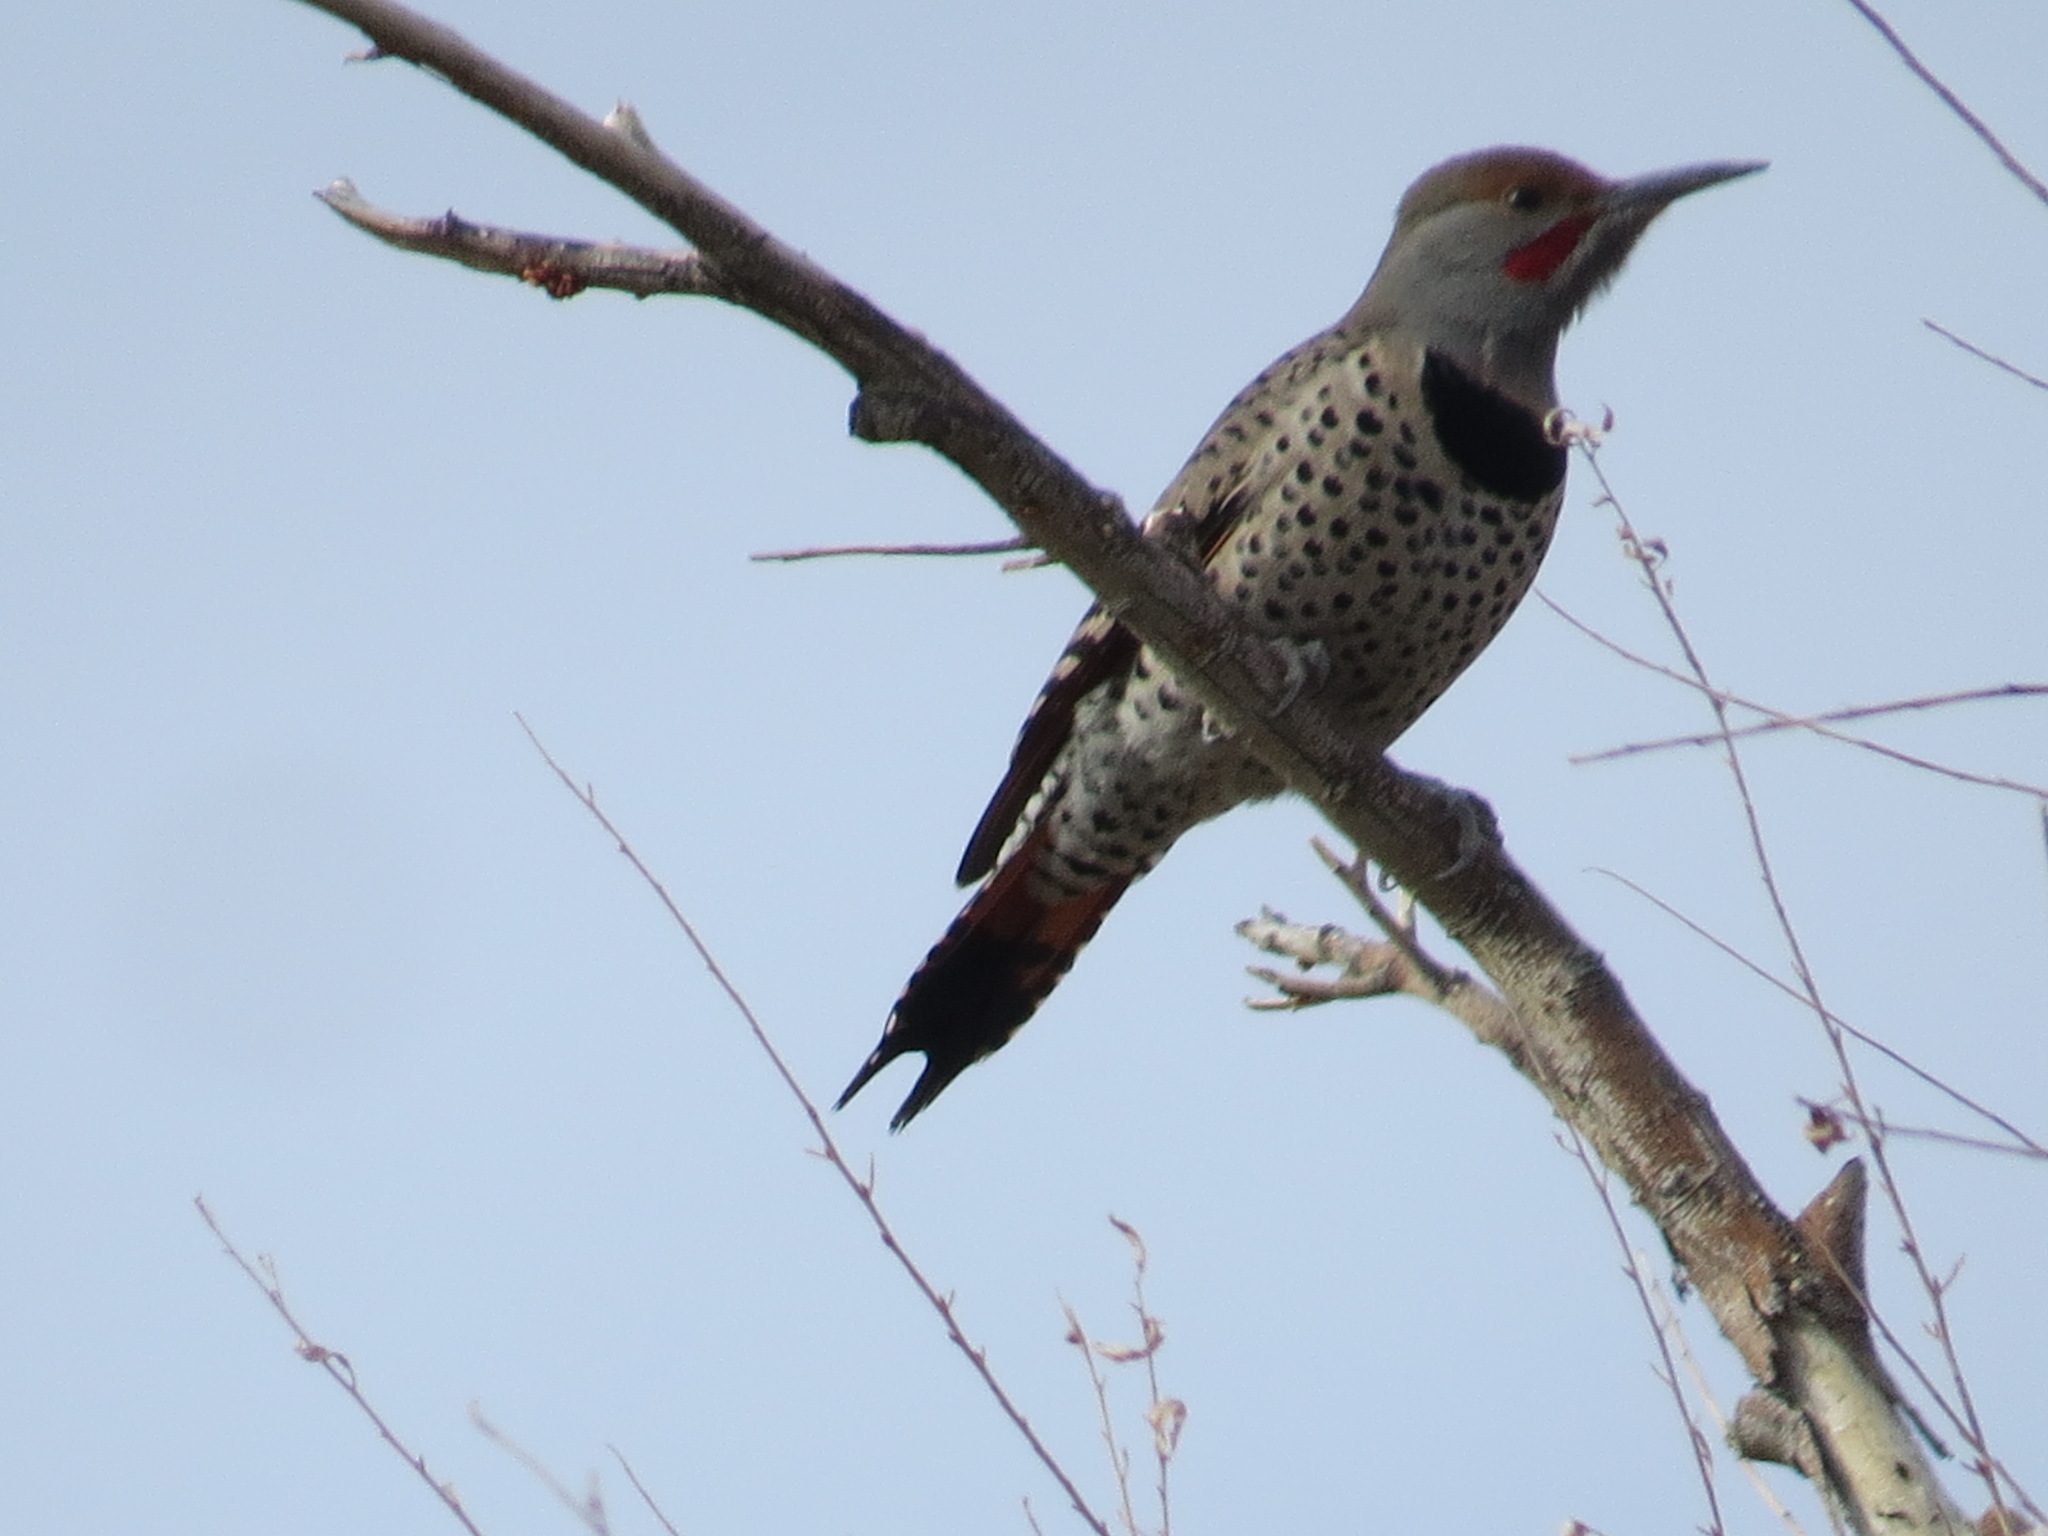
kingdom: Animalia
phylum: Chordata
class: Aves
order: Piciformes
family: Picidae
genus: Colaptes
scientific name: Colaptes auratus
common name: Northern flicker
